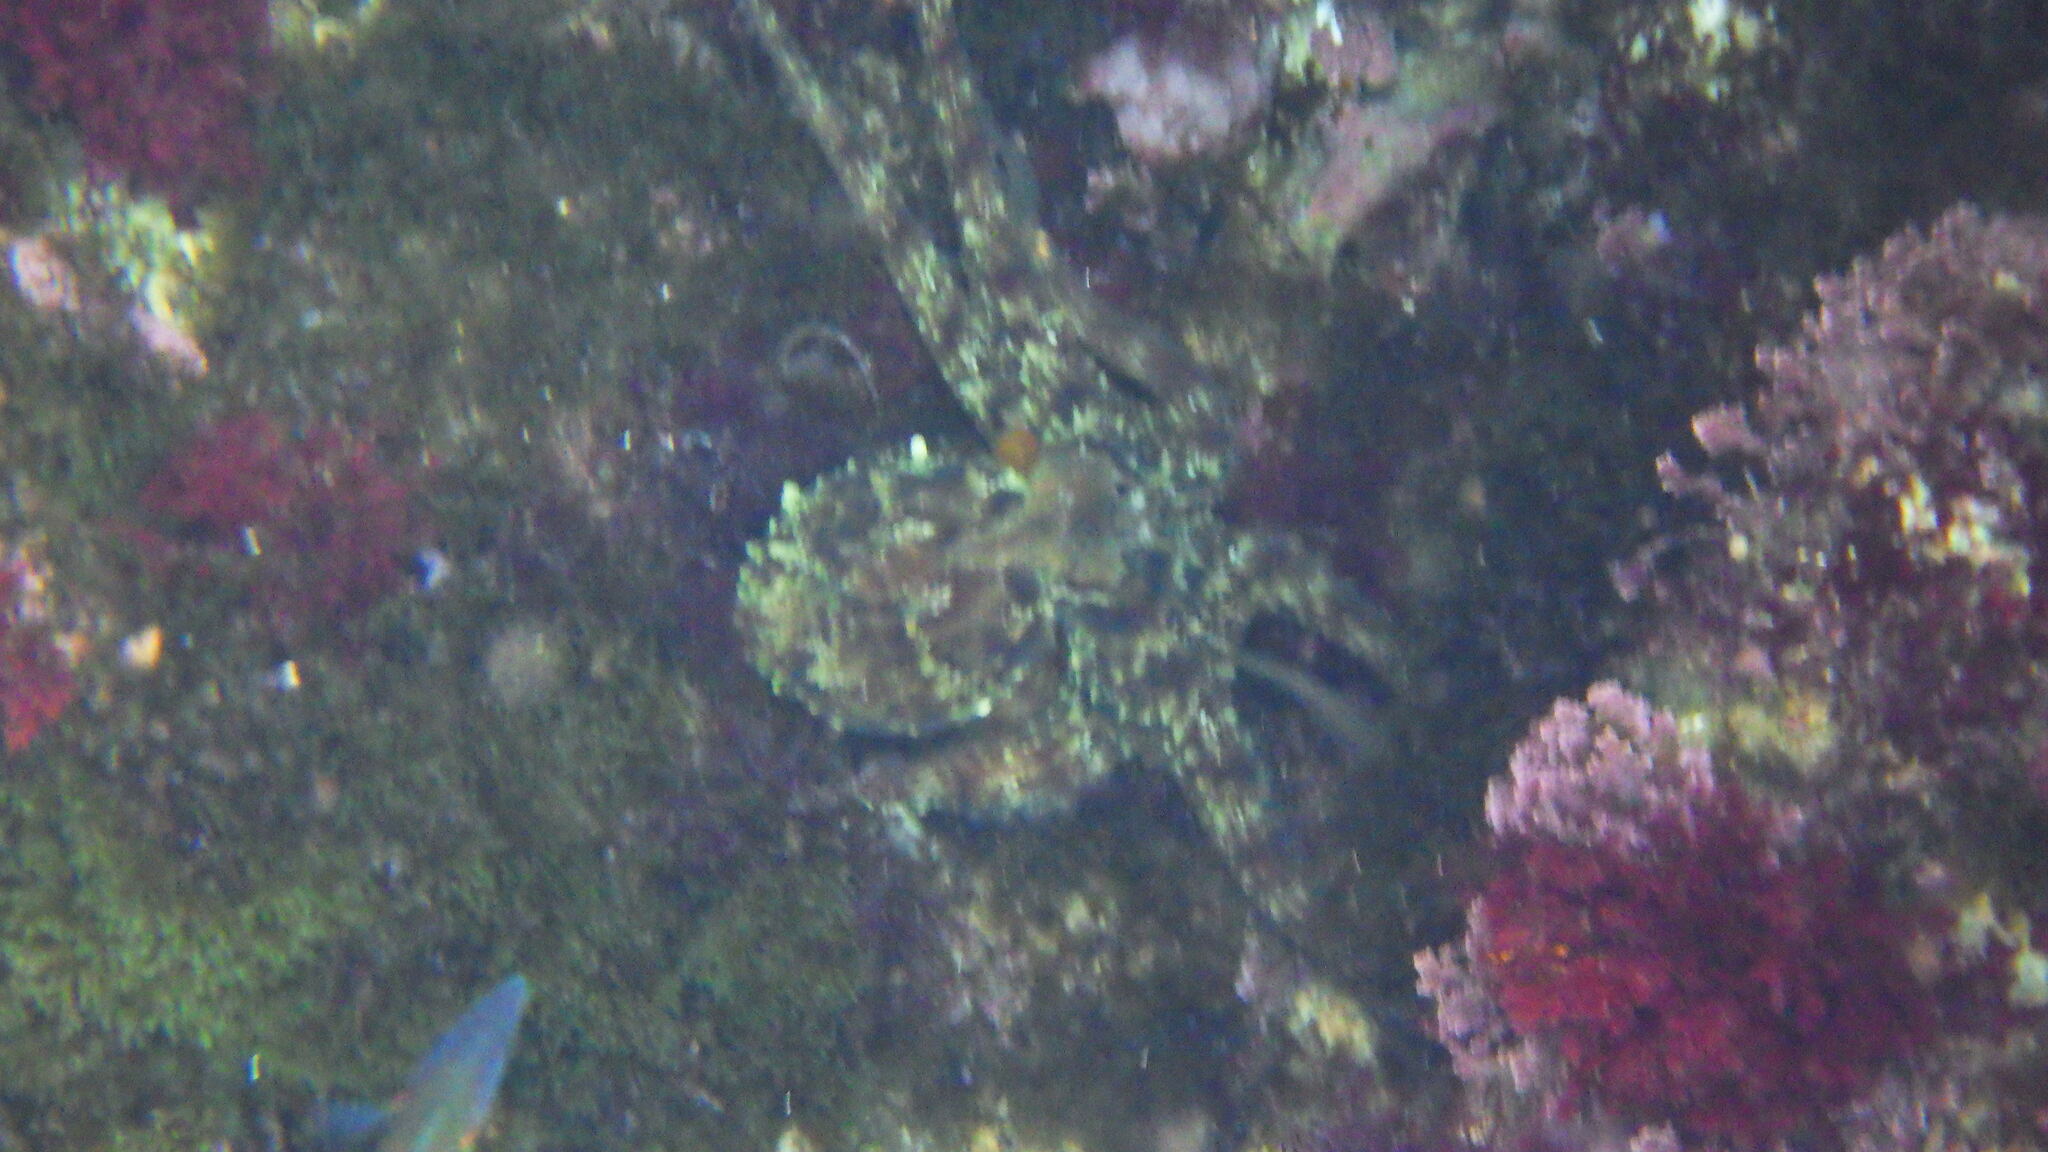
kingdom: Animalia
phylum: Mollusca
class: Cephalopoda
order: Octopoda
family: Octopodidae
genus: Octopus
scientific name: Octopus vulgaris
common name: Common octopus
